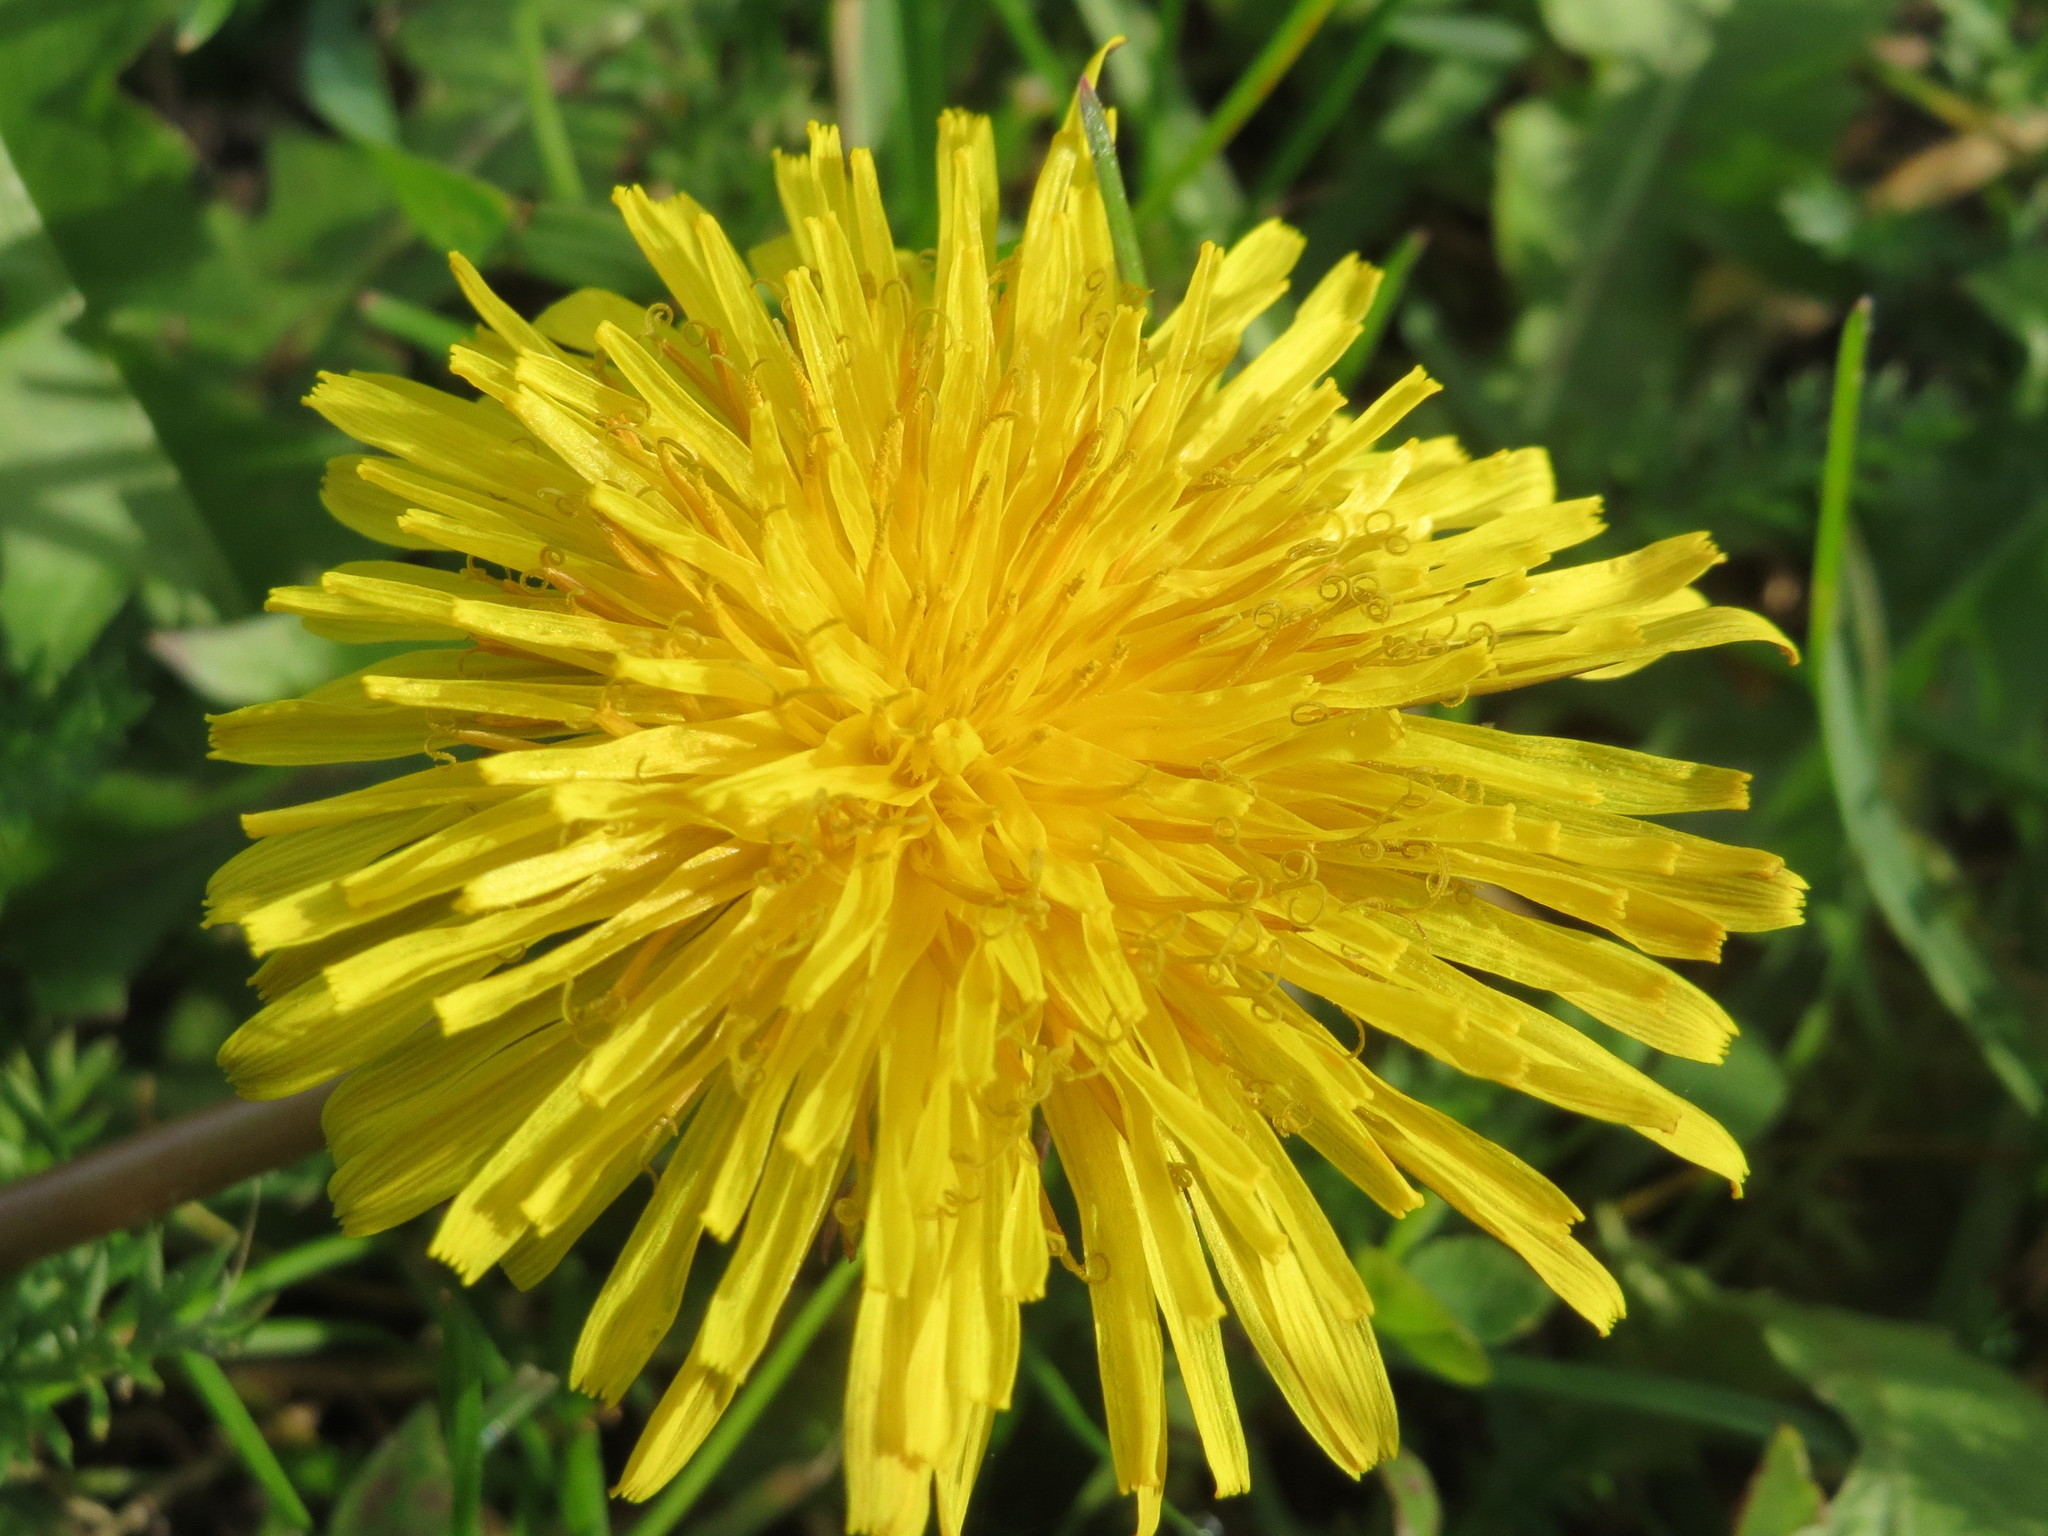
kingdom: Plantae
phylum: Tracheophyta
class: Magnoliopsida
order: Asterales
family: Asteraceae
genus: Taraxacum
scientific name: Taraxacum officinale
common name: Common dandelion
